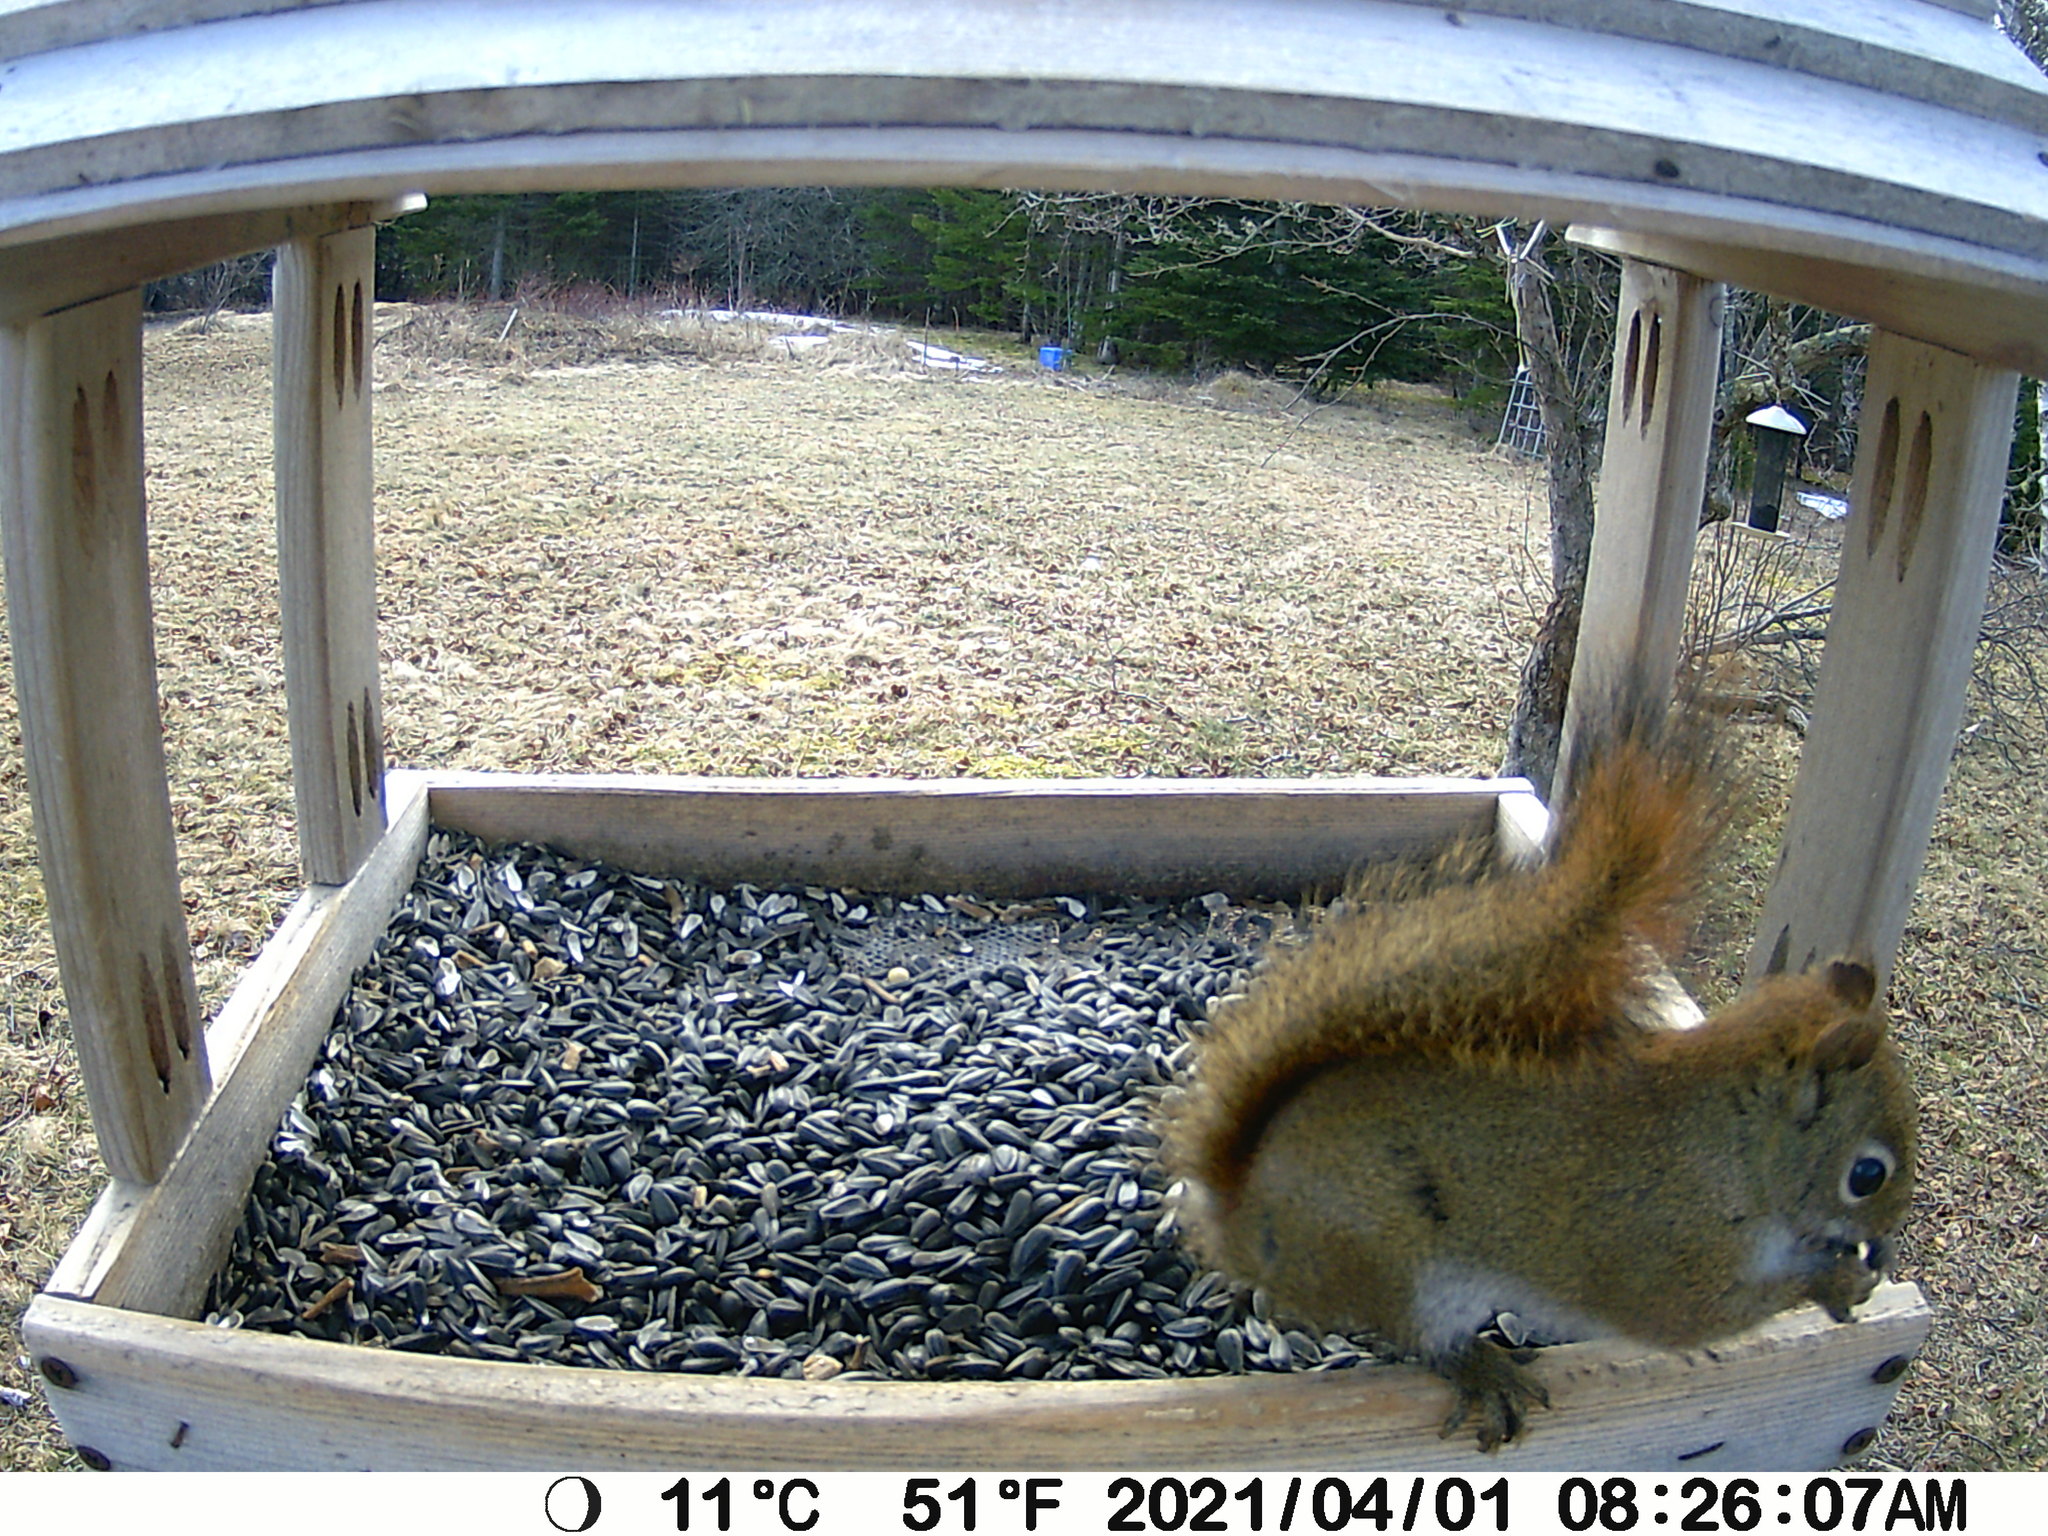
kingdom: Animalia
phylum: Chordata
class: Mammalia
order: Rodentia
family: Sciuridae
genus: Tamiasciurus
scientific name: Tamiasciurus hudsonicus
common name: Red squirrel
